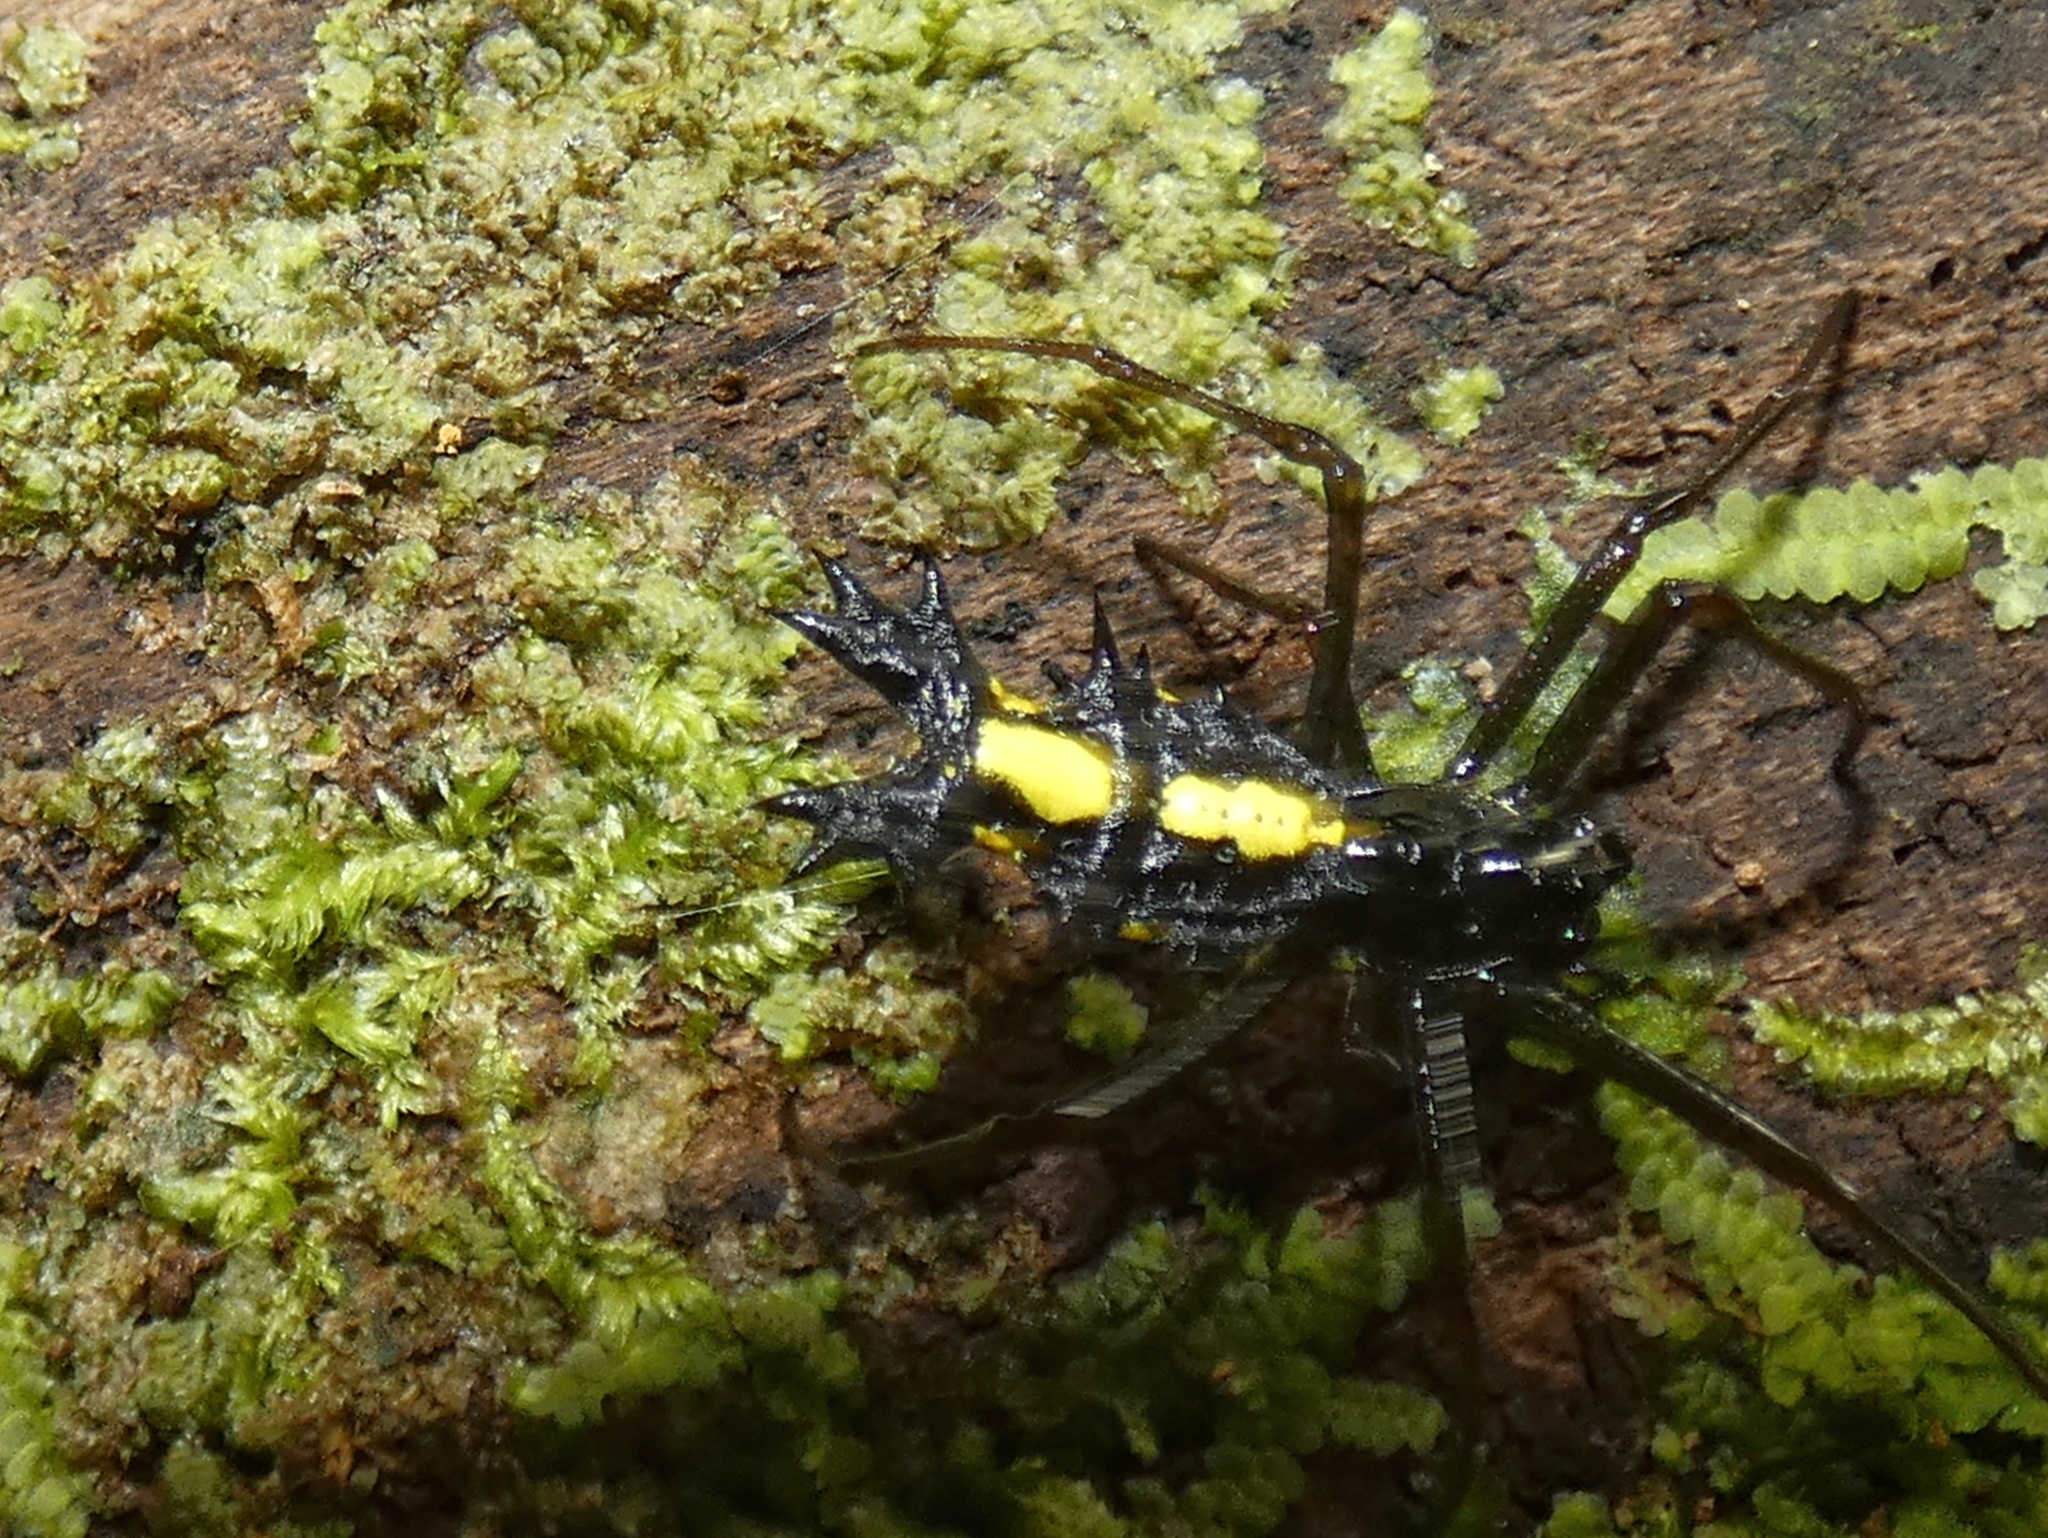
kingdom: Animalia
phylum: Arthropoda
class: Arachnida
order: Araneae
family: Araneidae
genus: Micrathena
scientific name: Micrathena lepidoptera
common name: Orb weavers
